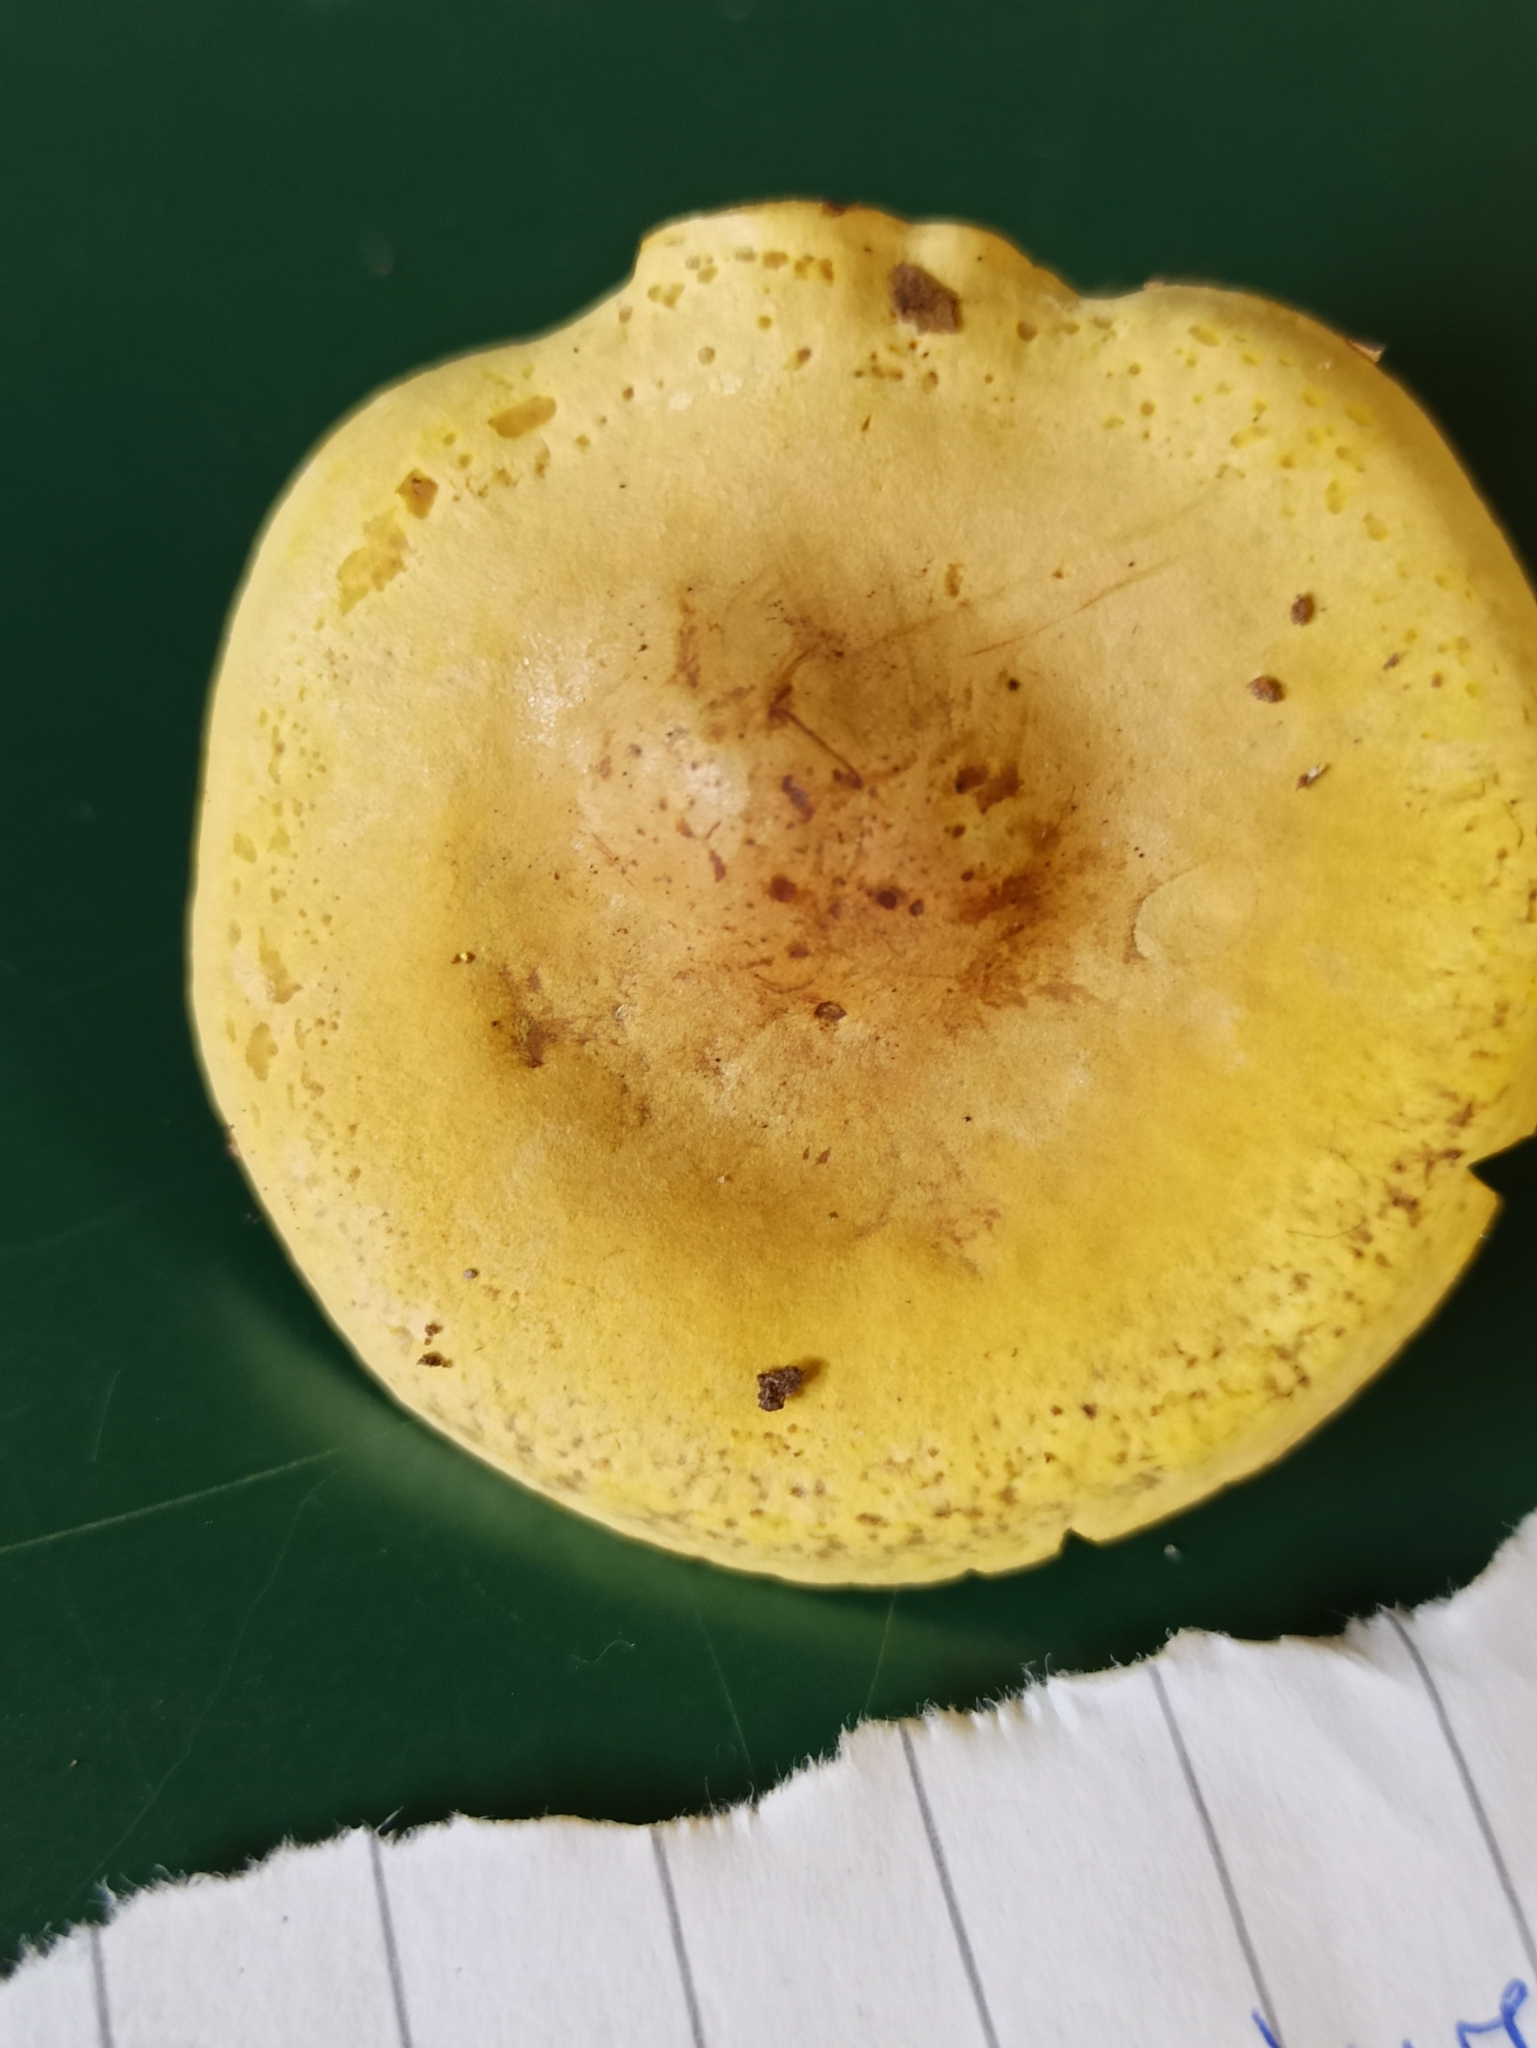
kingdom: Fungi
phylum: Basidiomycota
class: Agaricomycetes
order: Agaricales
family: Tricholomataceae
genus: Tricholoma
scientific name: Tricholoma sulphureum
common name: Stinky knight
